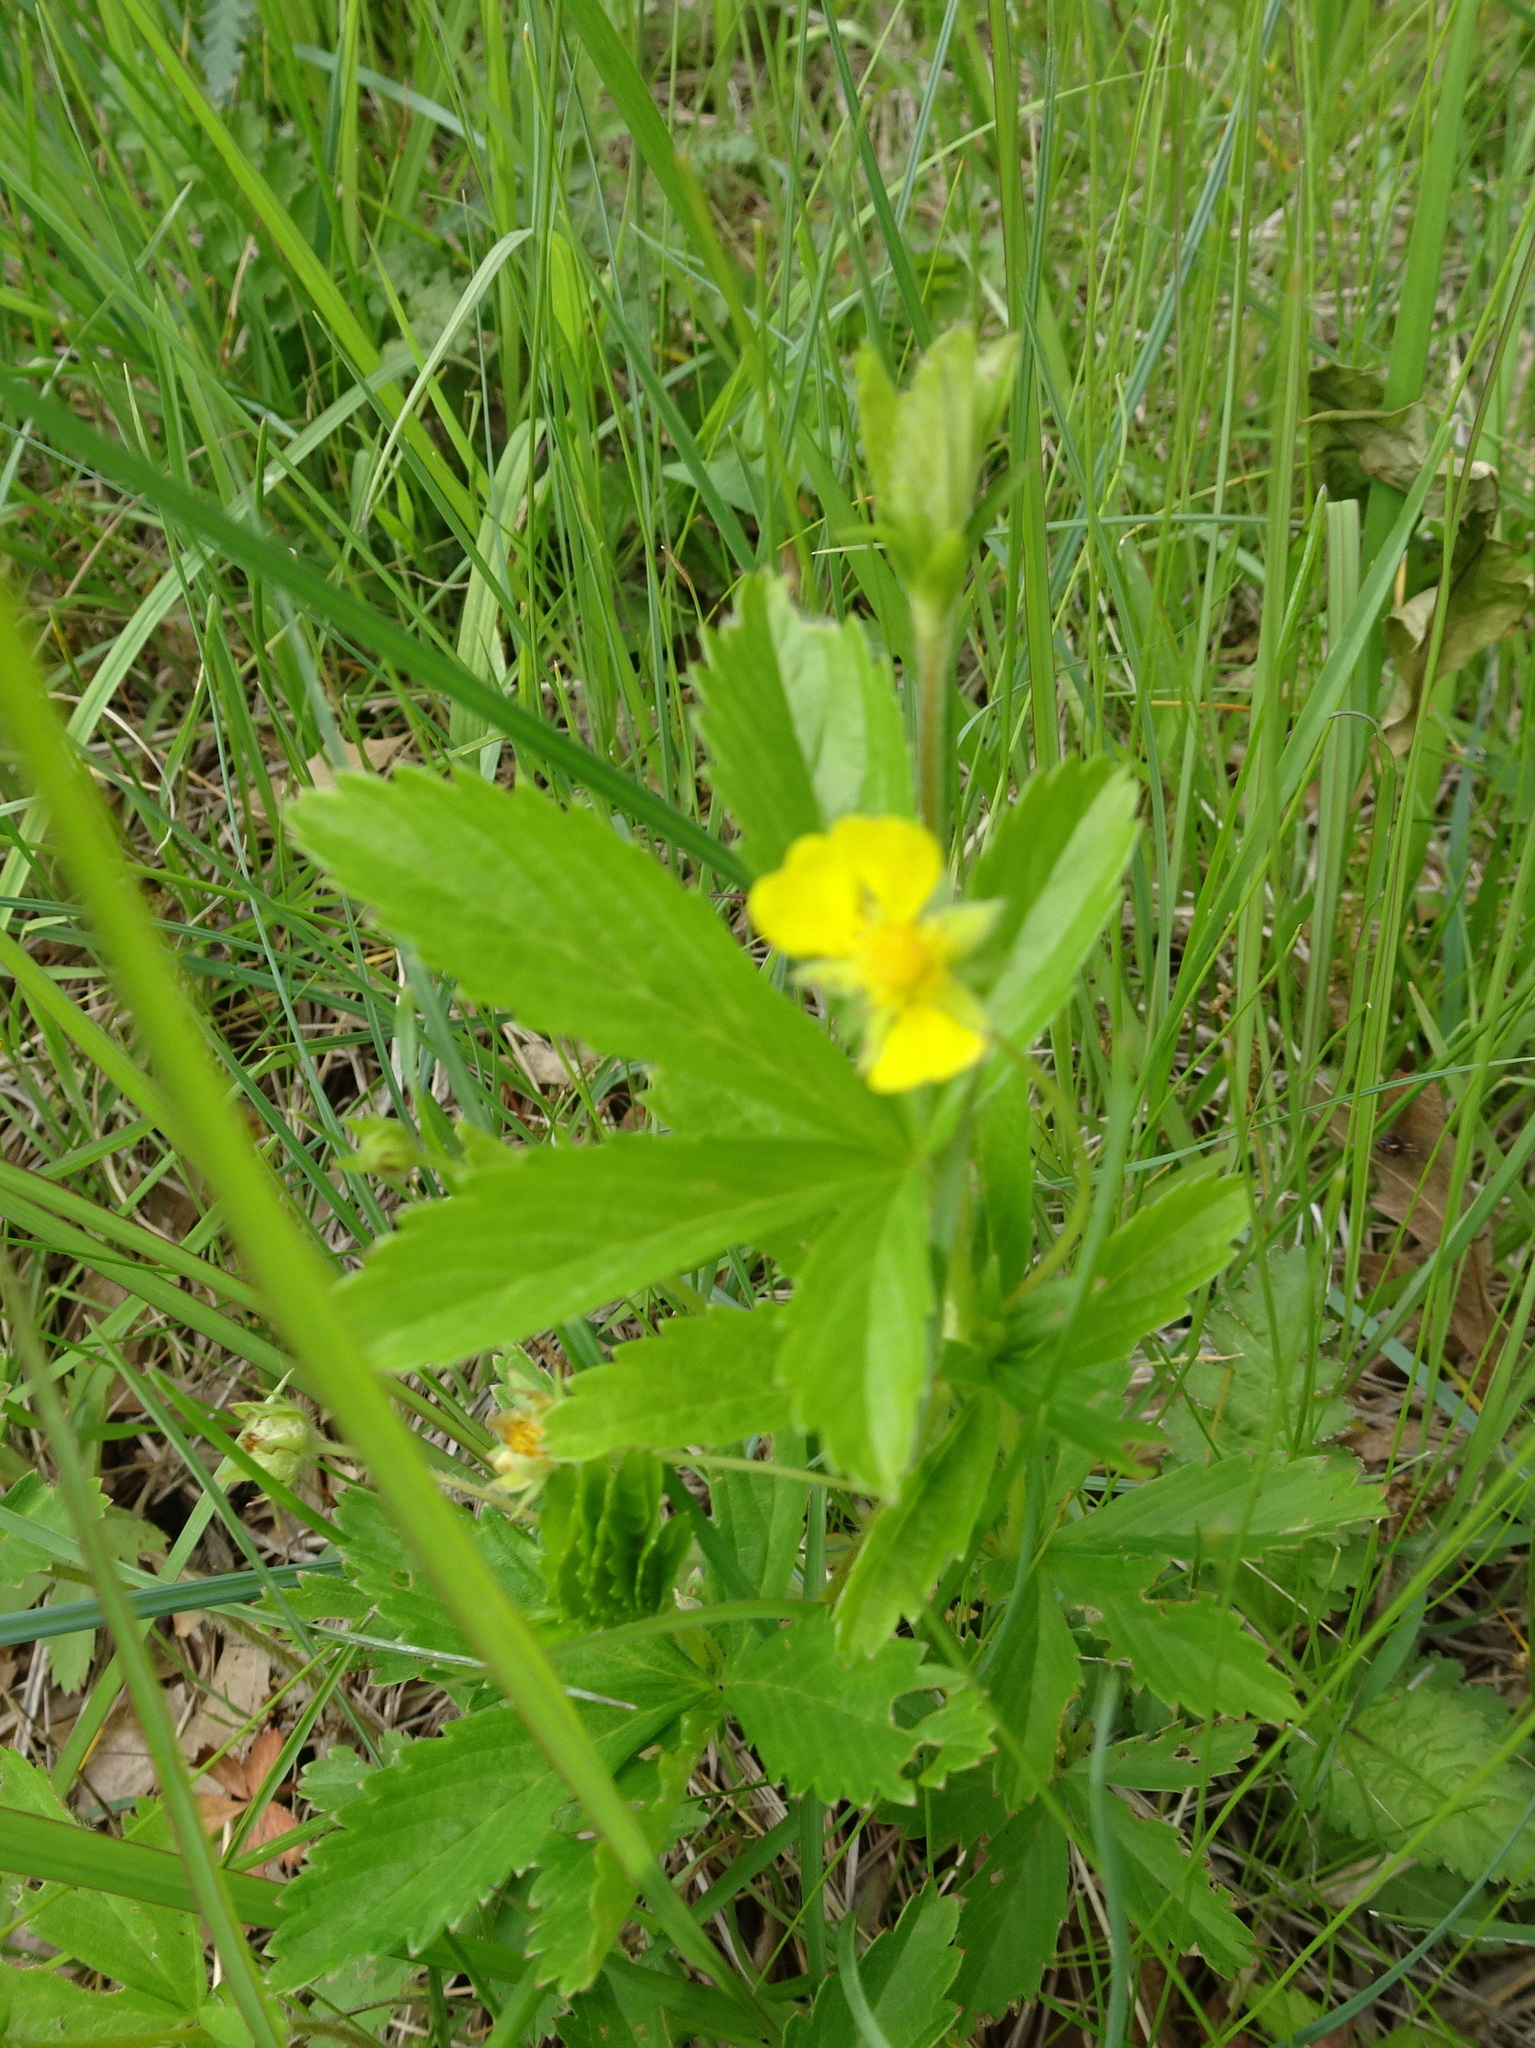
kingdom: Plantae
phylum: Tracheophyta
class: Magnoliopsida
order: Rosales
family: Rosaceae
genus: Potentilla
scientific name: Potentilla simplex
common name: Old field cinquefoil
